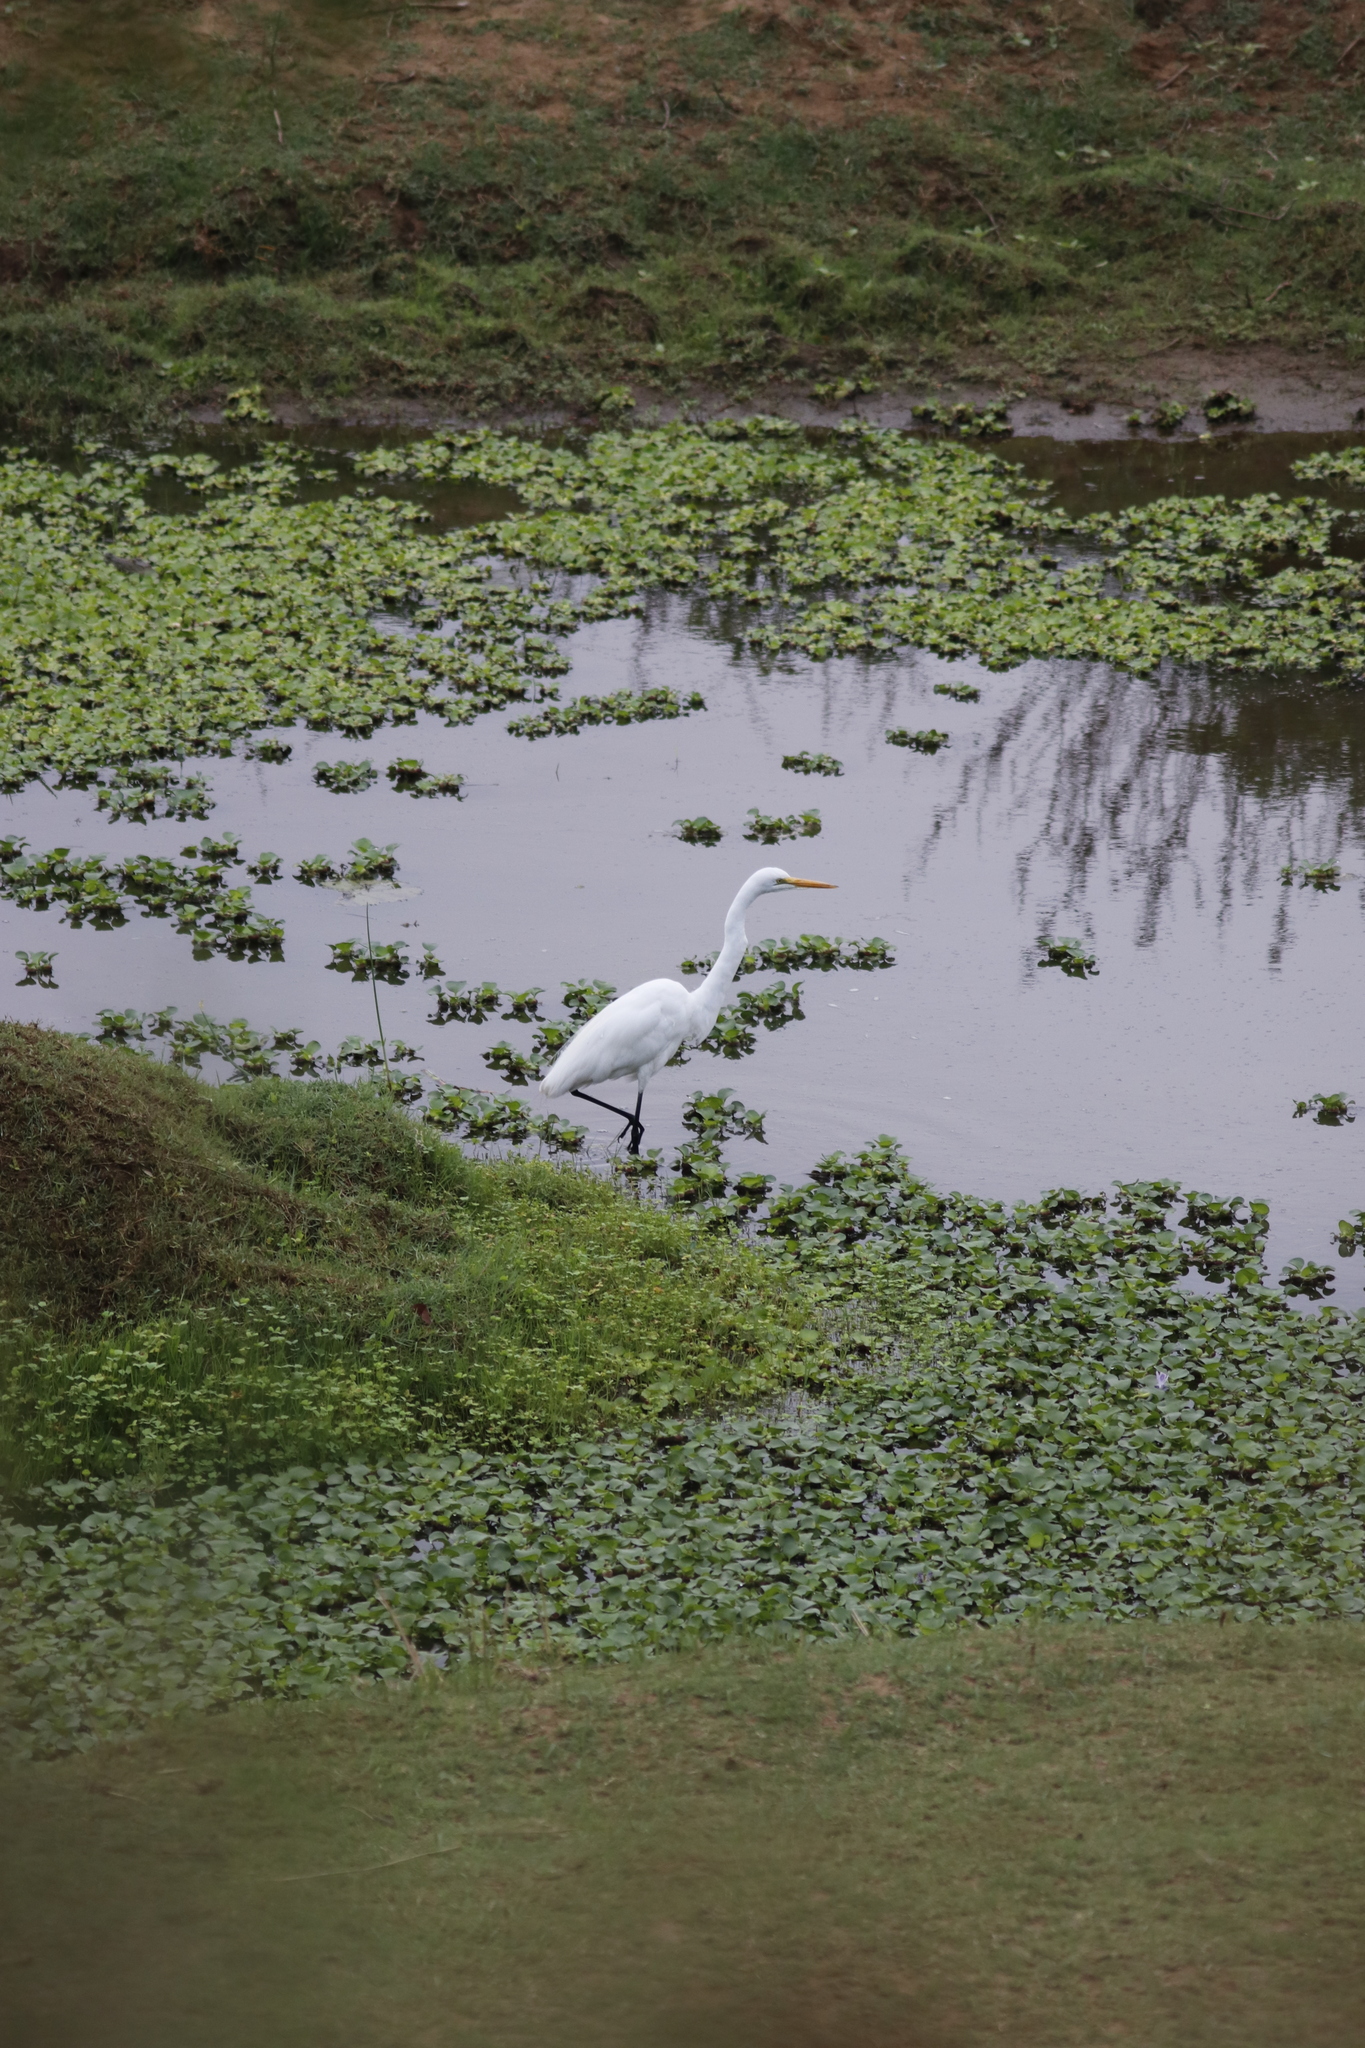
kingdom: Animalia
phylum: Chordata
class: Aves
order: Pelecaniformes
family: Ardeidae
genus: Ardea
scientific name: Ardea alba
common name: Great egret
